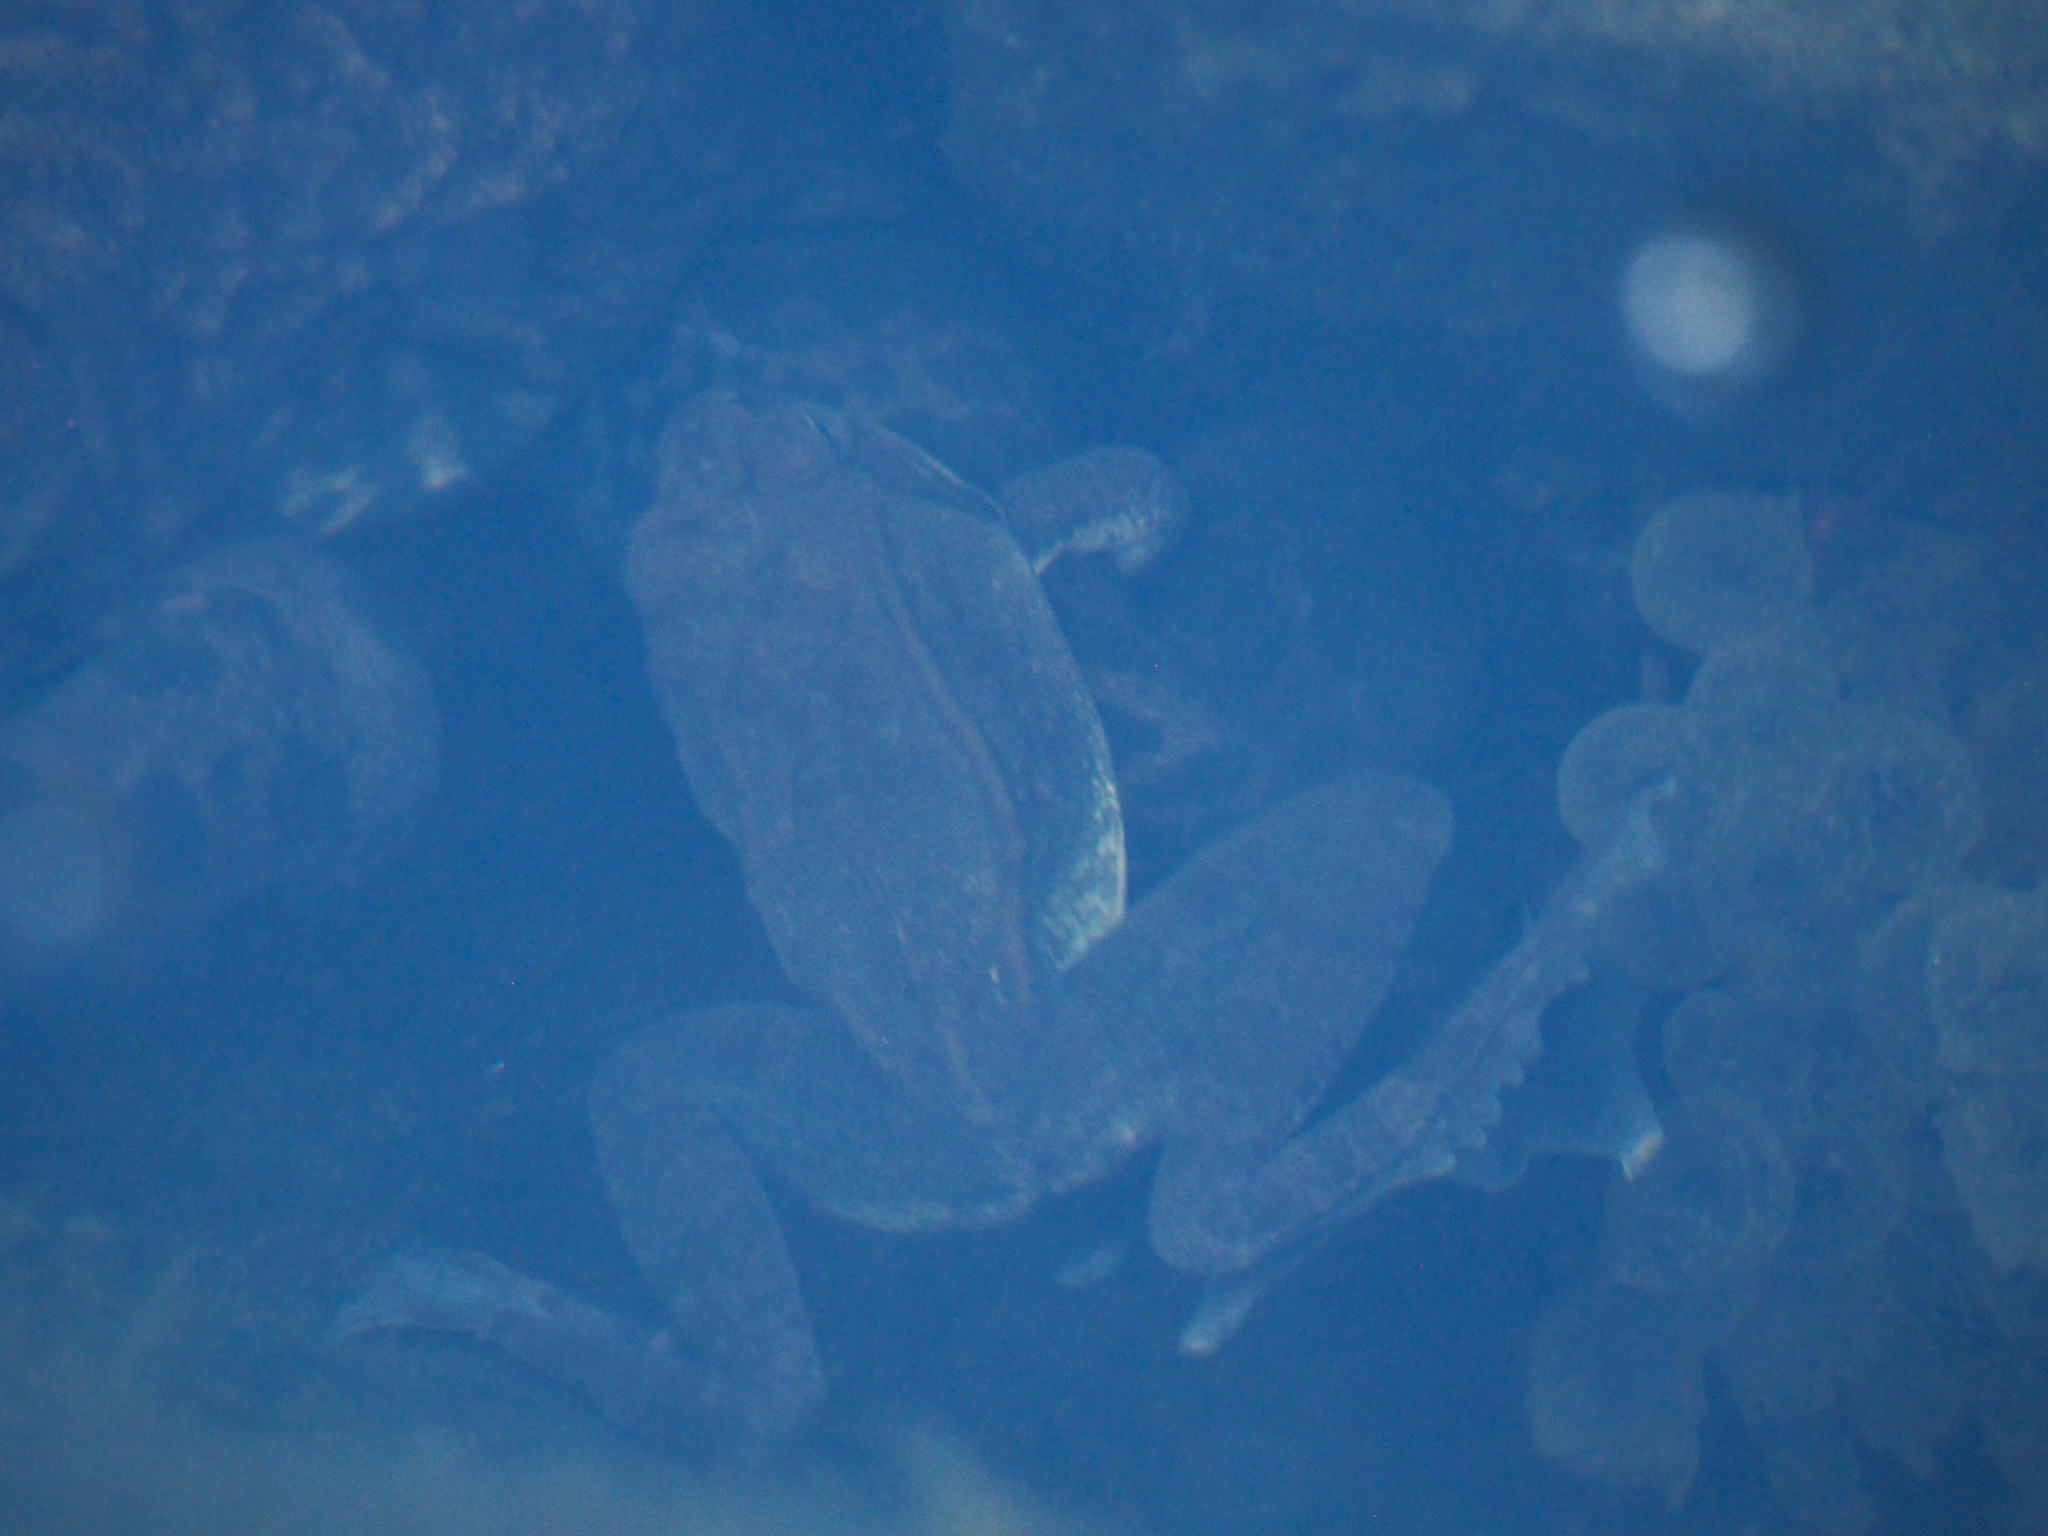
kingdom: Animalia
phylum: Chordata
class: Amphibia
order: Anura
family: Ranidae
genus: Lithobates
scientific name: Lithobates sylvaticus
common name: Wood frog
